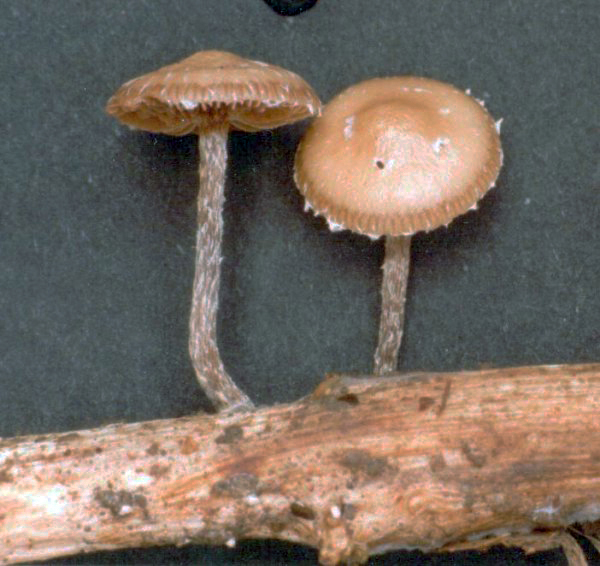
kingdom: Fungi
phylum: Basidiomycota
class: Agaricomycetes
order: Agaricales
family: Strophariaceae
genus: Deconica
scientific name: Deconica crobula
